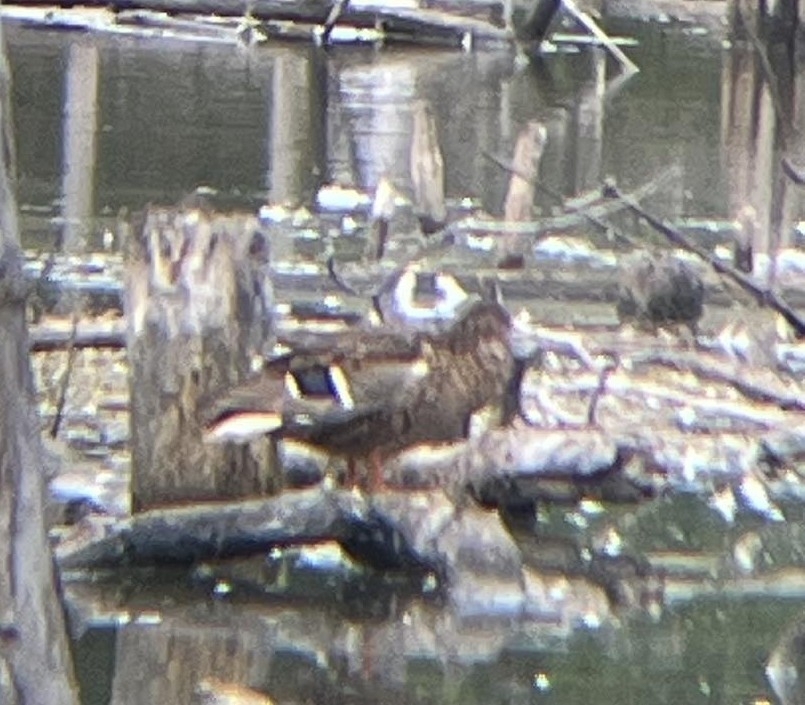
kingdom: Animalia
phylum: Chordata
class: Aves
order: Anseriformes
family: Anatidae
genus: Anas
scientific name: Anas platyrhynchos
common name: Mallard
